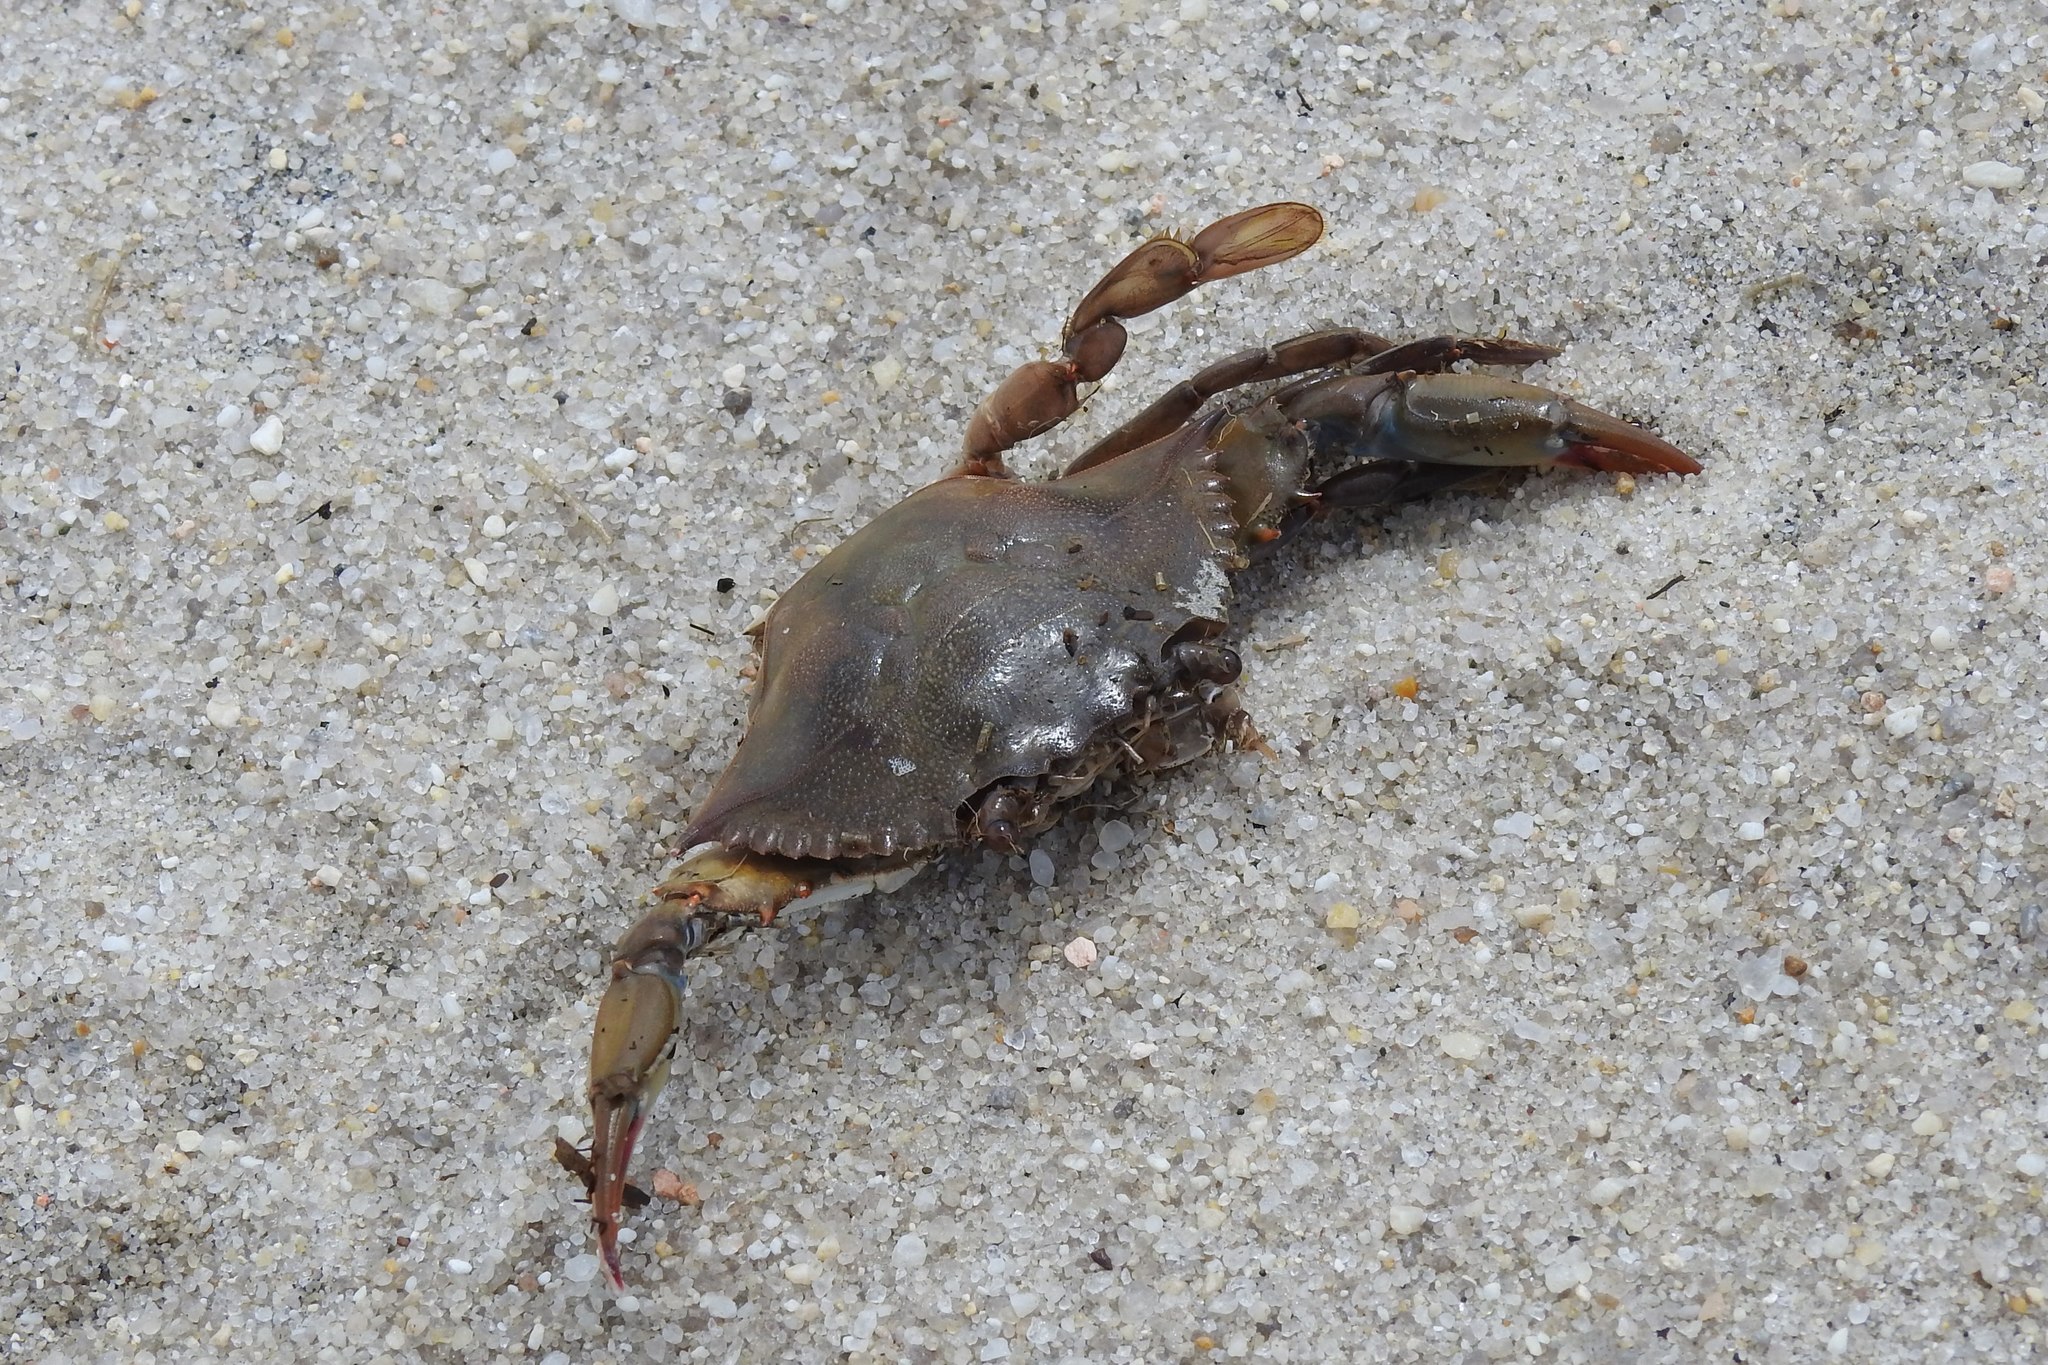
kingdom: Animalia
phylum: Arthropoda
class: Malacostraca
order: Decapoda
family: Portunidae
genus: Callinectes
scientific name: Callinectes sapidus
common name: Blue crab
